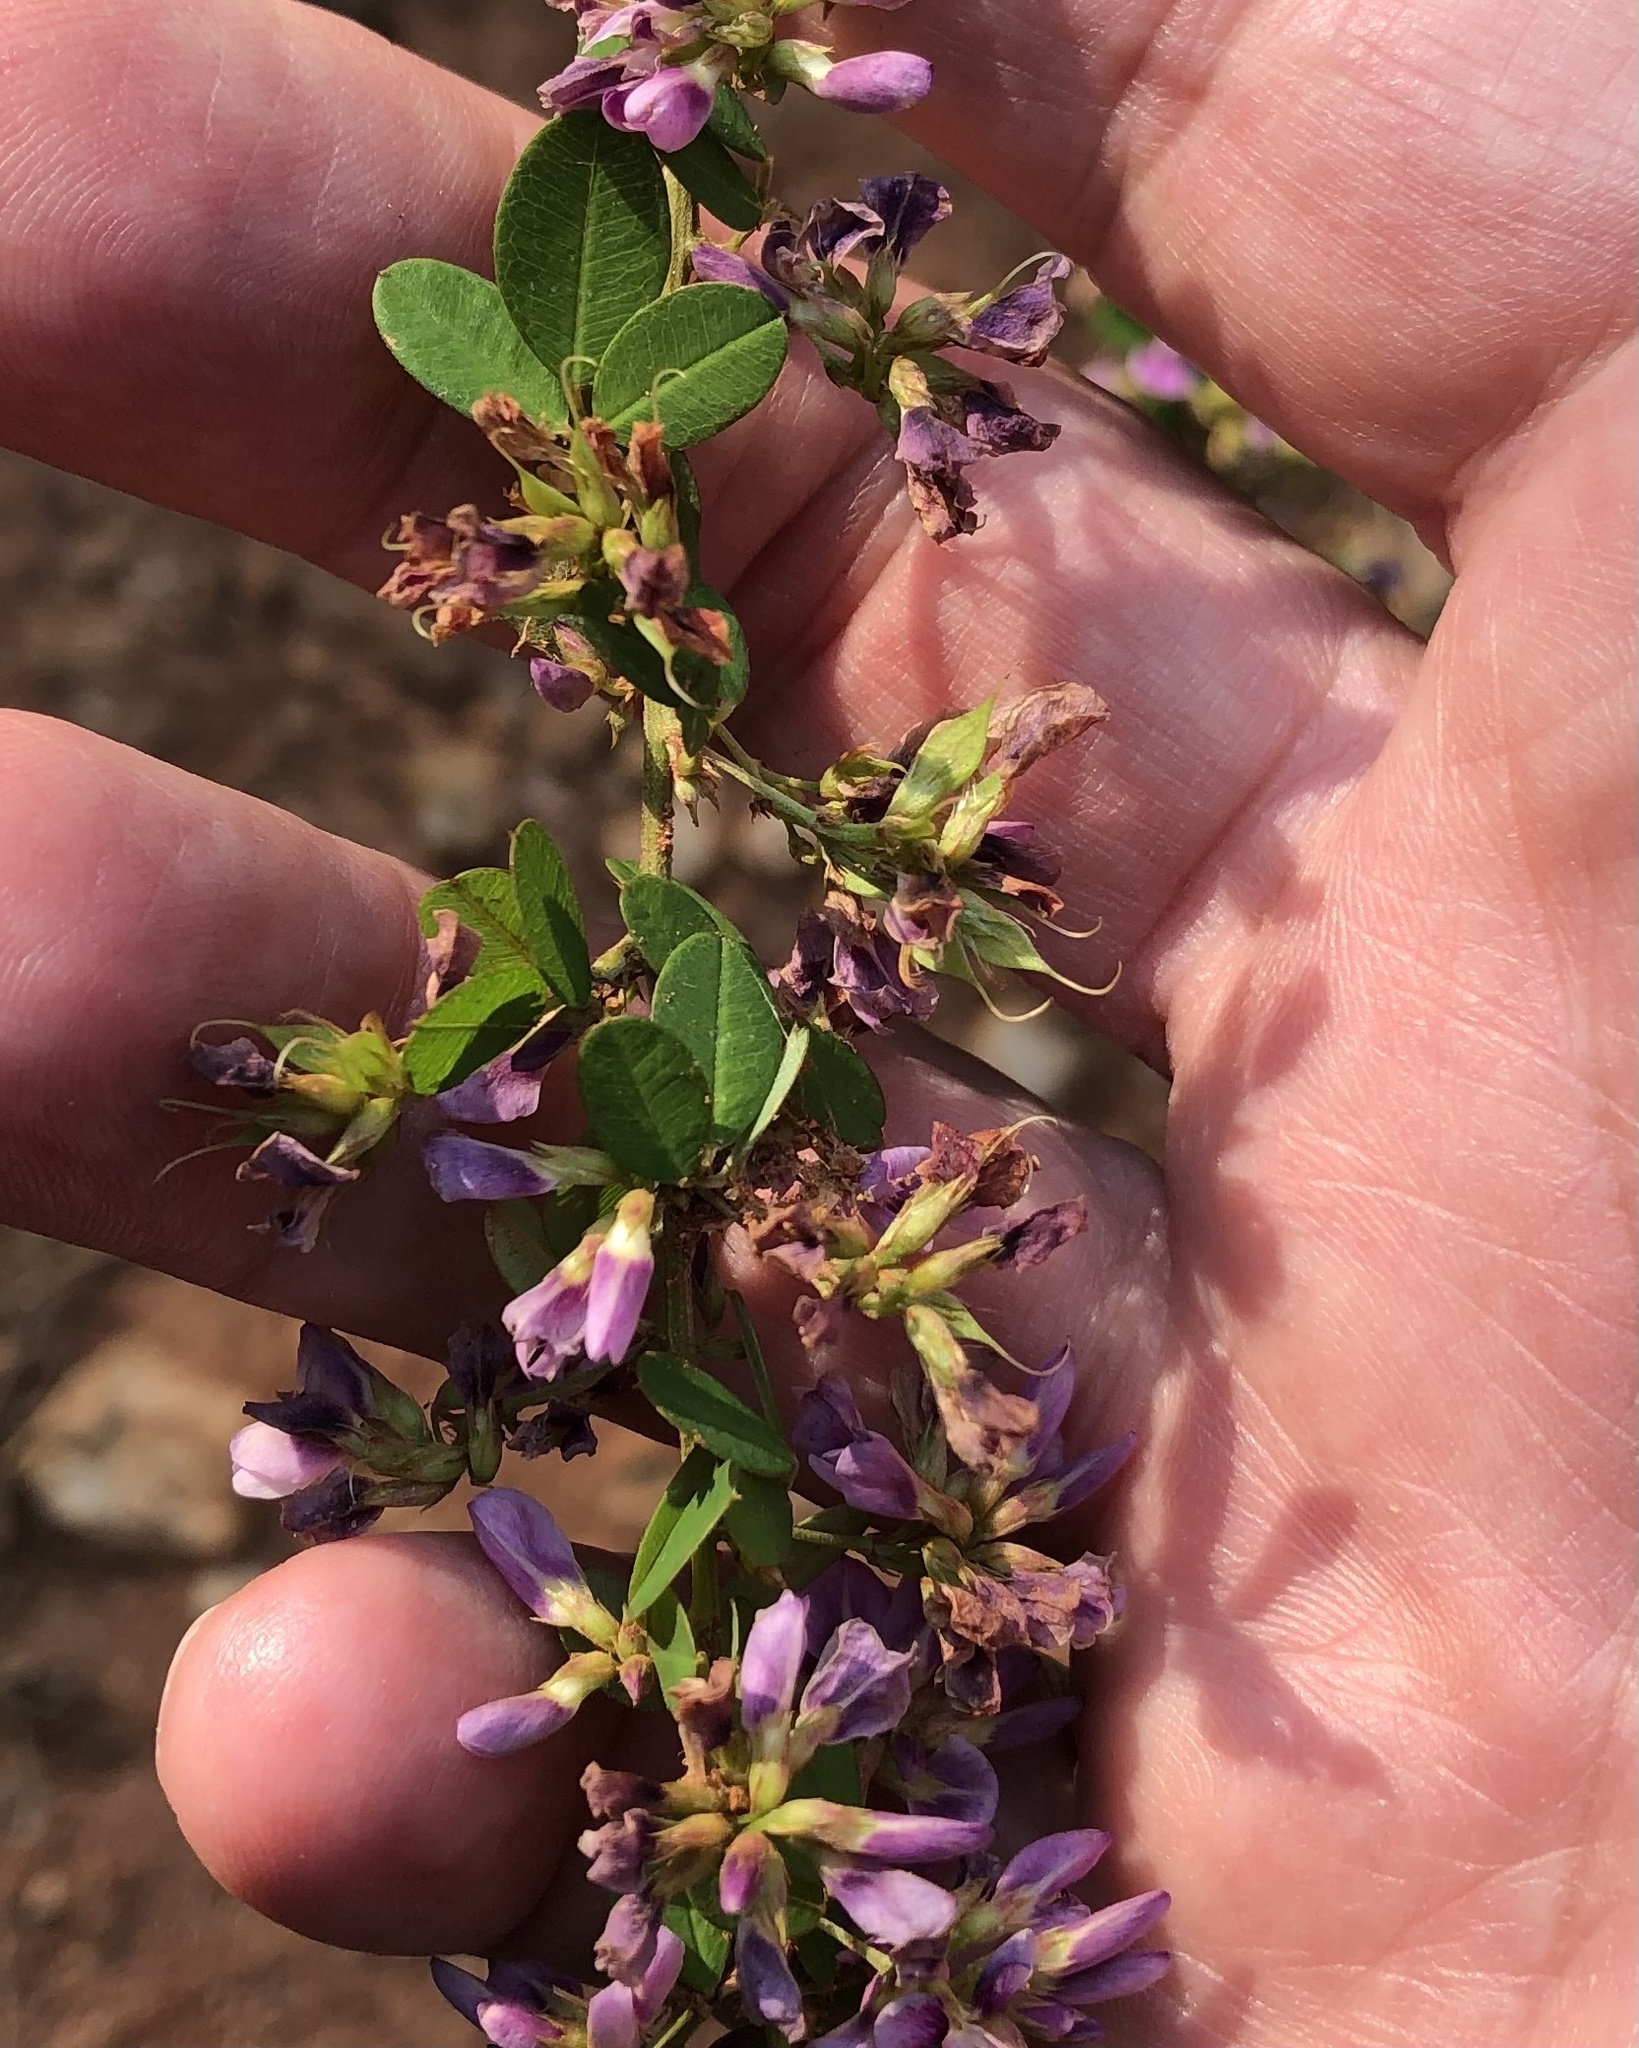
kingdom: Plantae
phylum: Tracheophyta
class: Magnoliopsida
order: Fabales
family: Fabaceae
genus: Lespedeza
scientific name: Lespedeza violacea
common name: Wand bush-clover
